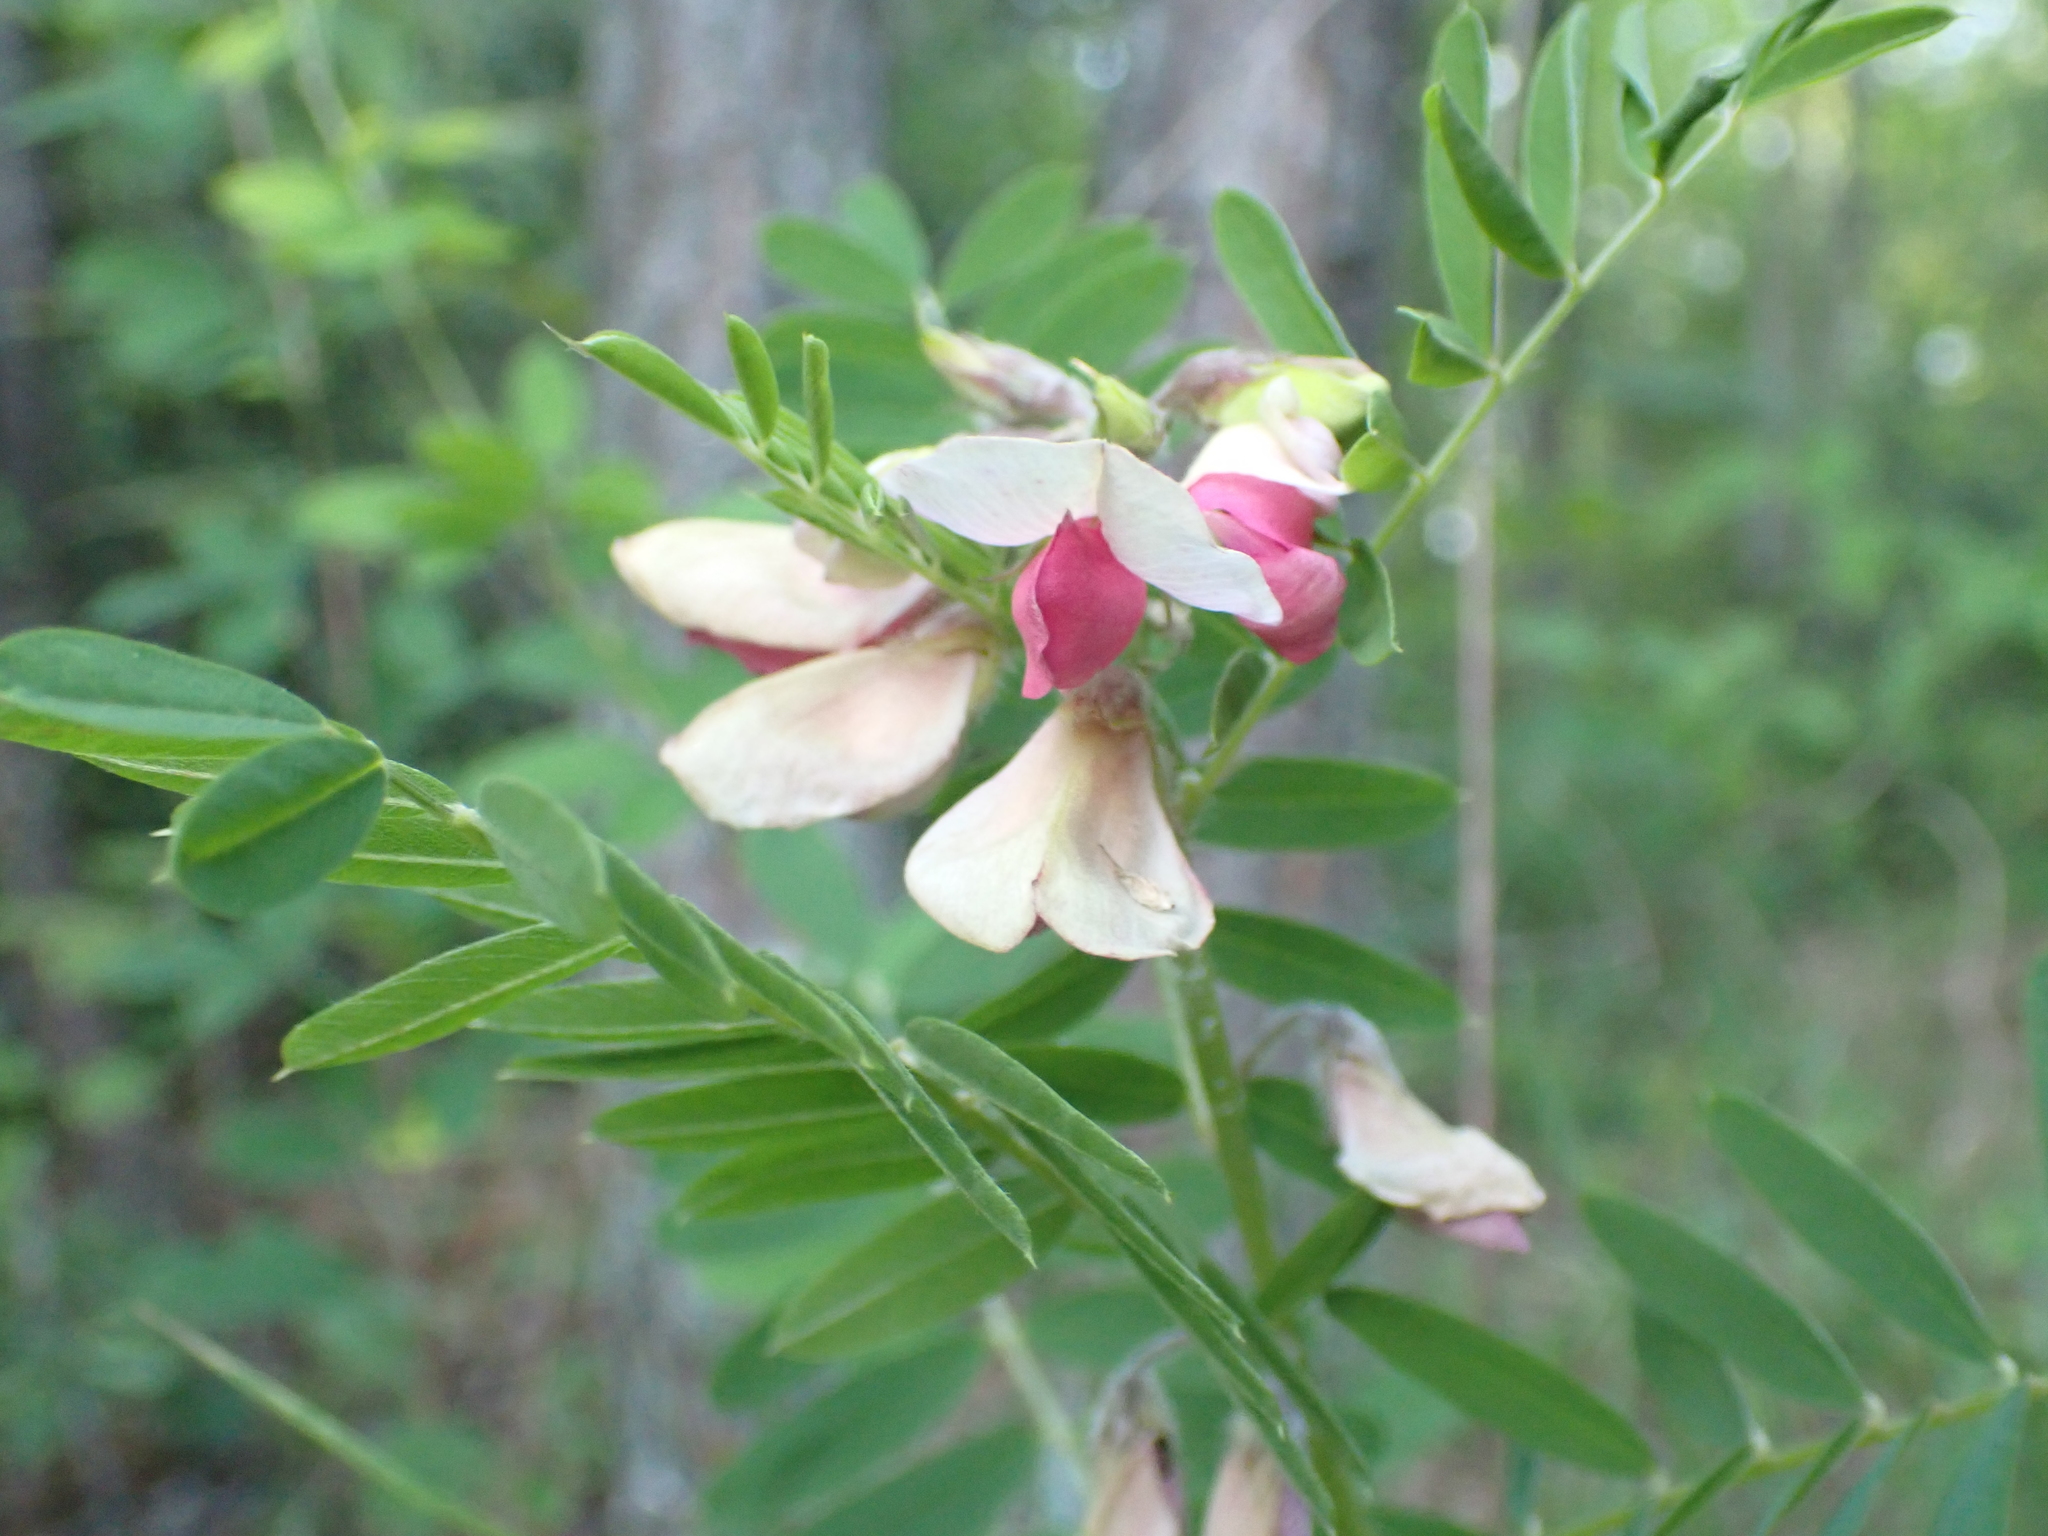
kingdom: Plantae
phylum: Tracheophyta
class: Magnoliopsida
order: Fabales
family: Fabaceae
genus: Tephrosia
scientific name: Tephrosia virginiana
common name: Rabbit-pea
